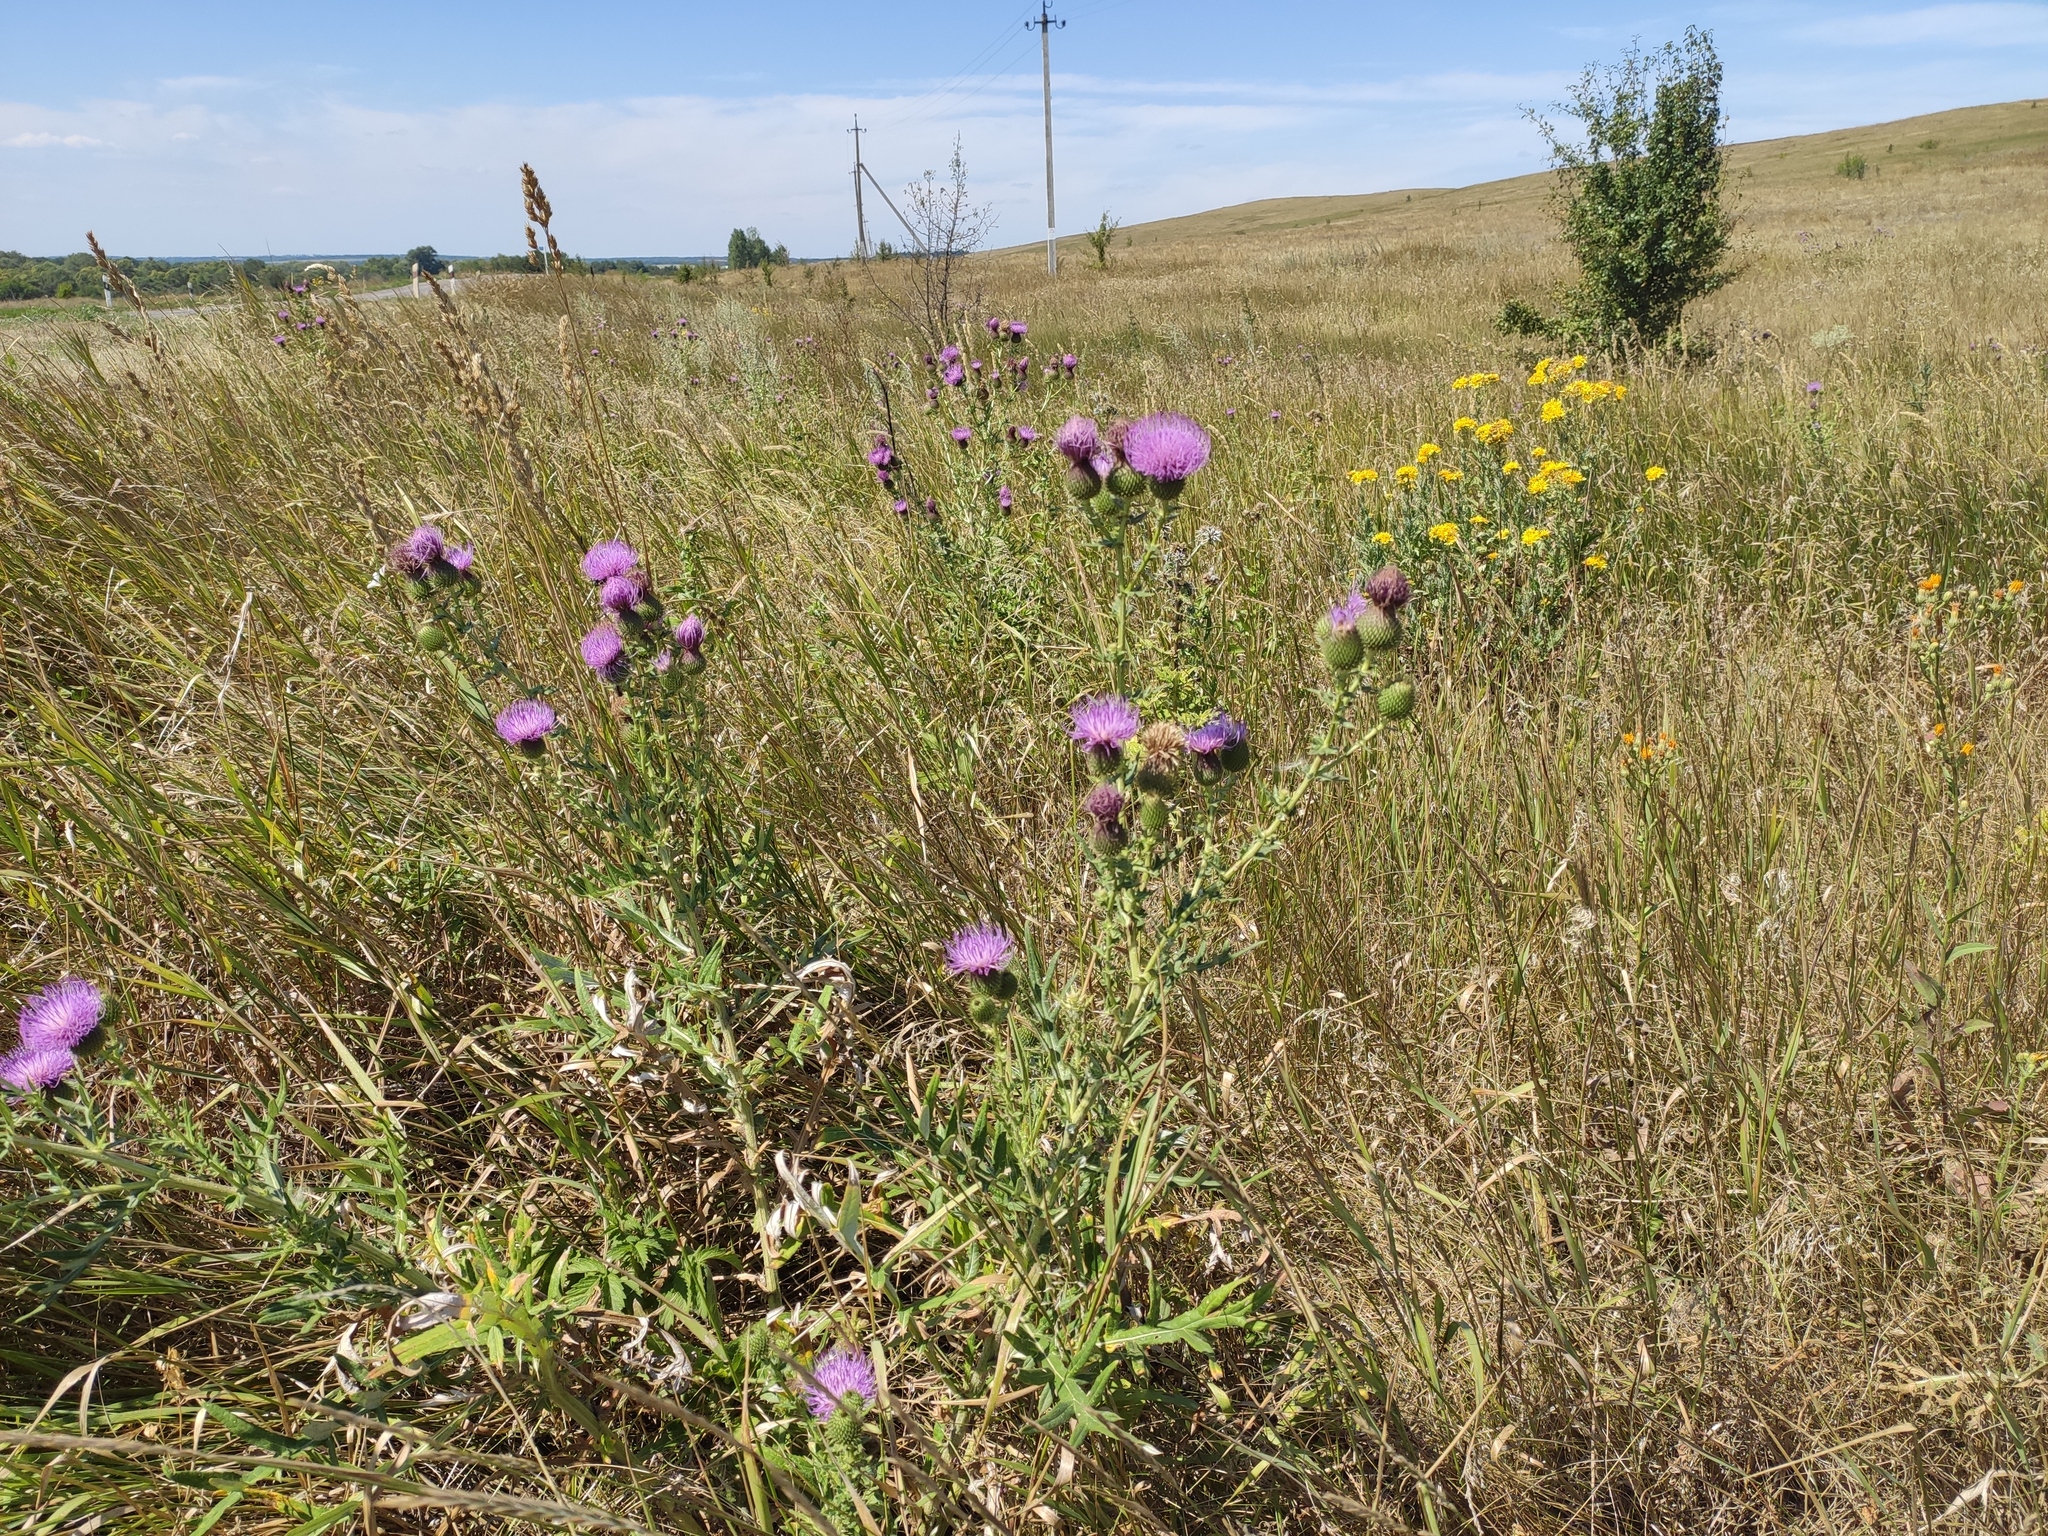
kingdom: Plantae
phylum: Tracheophyta
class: Magnoliopsida
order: Asterales
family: Asteraceae
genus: Cirsium
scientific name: Cirsium serrulatum
